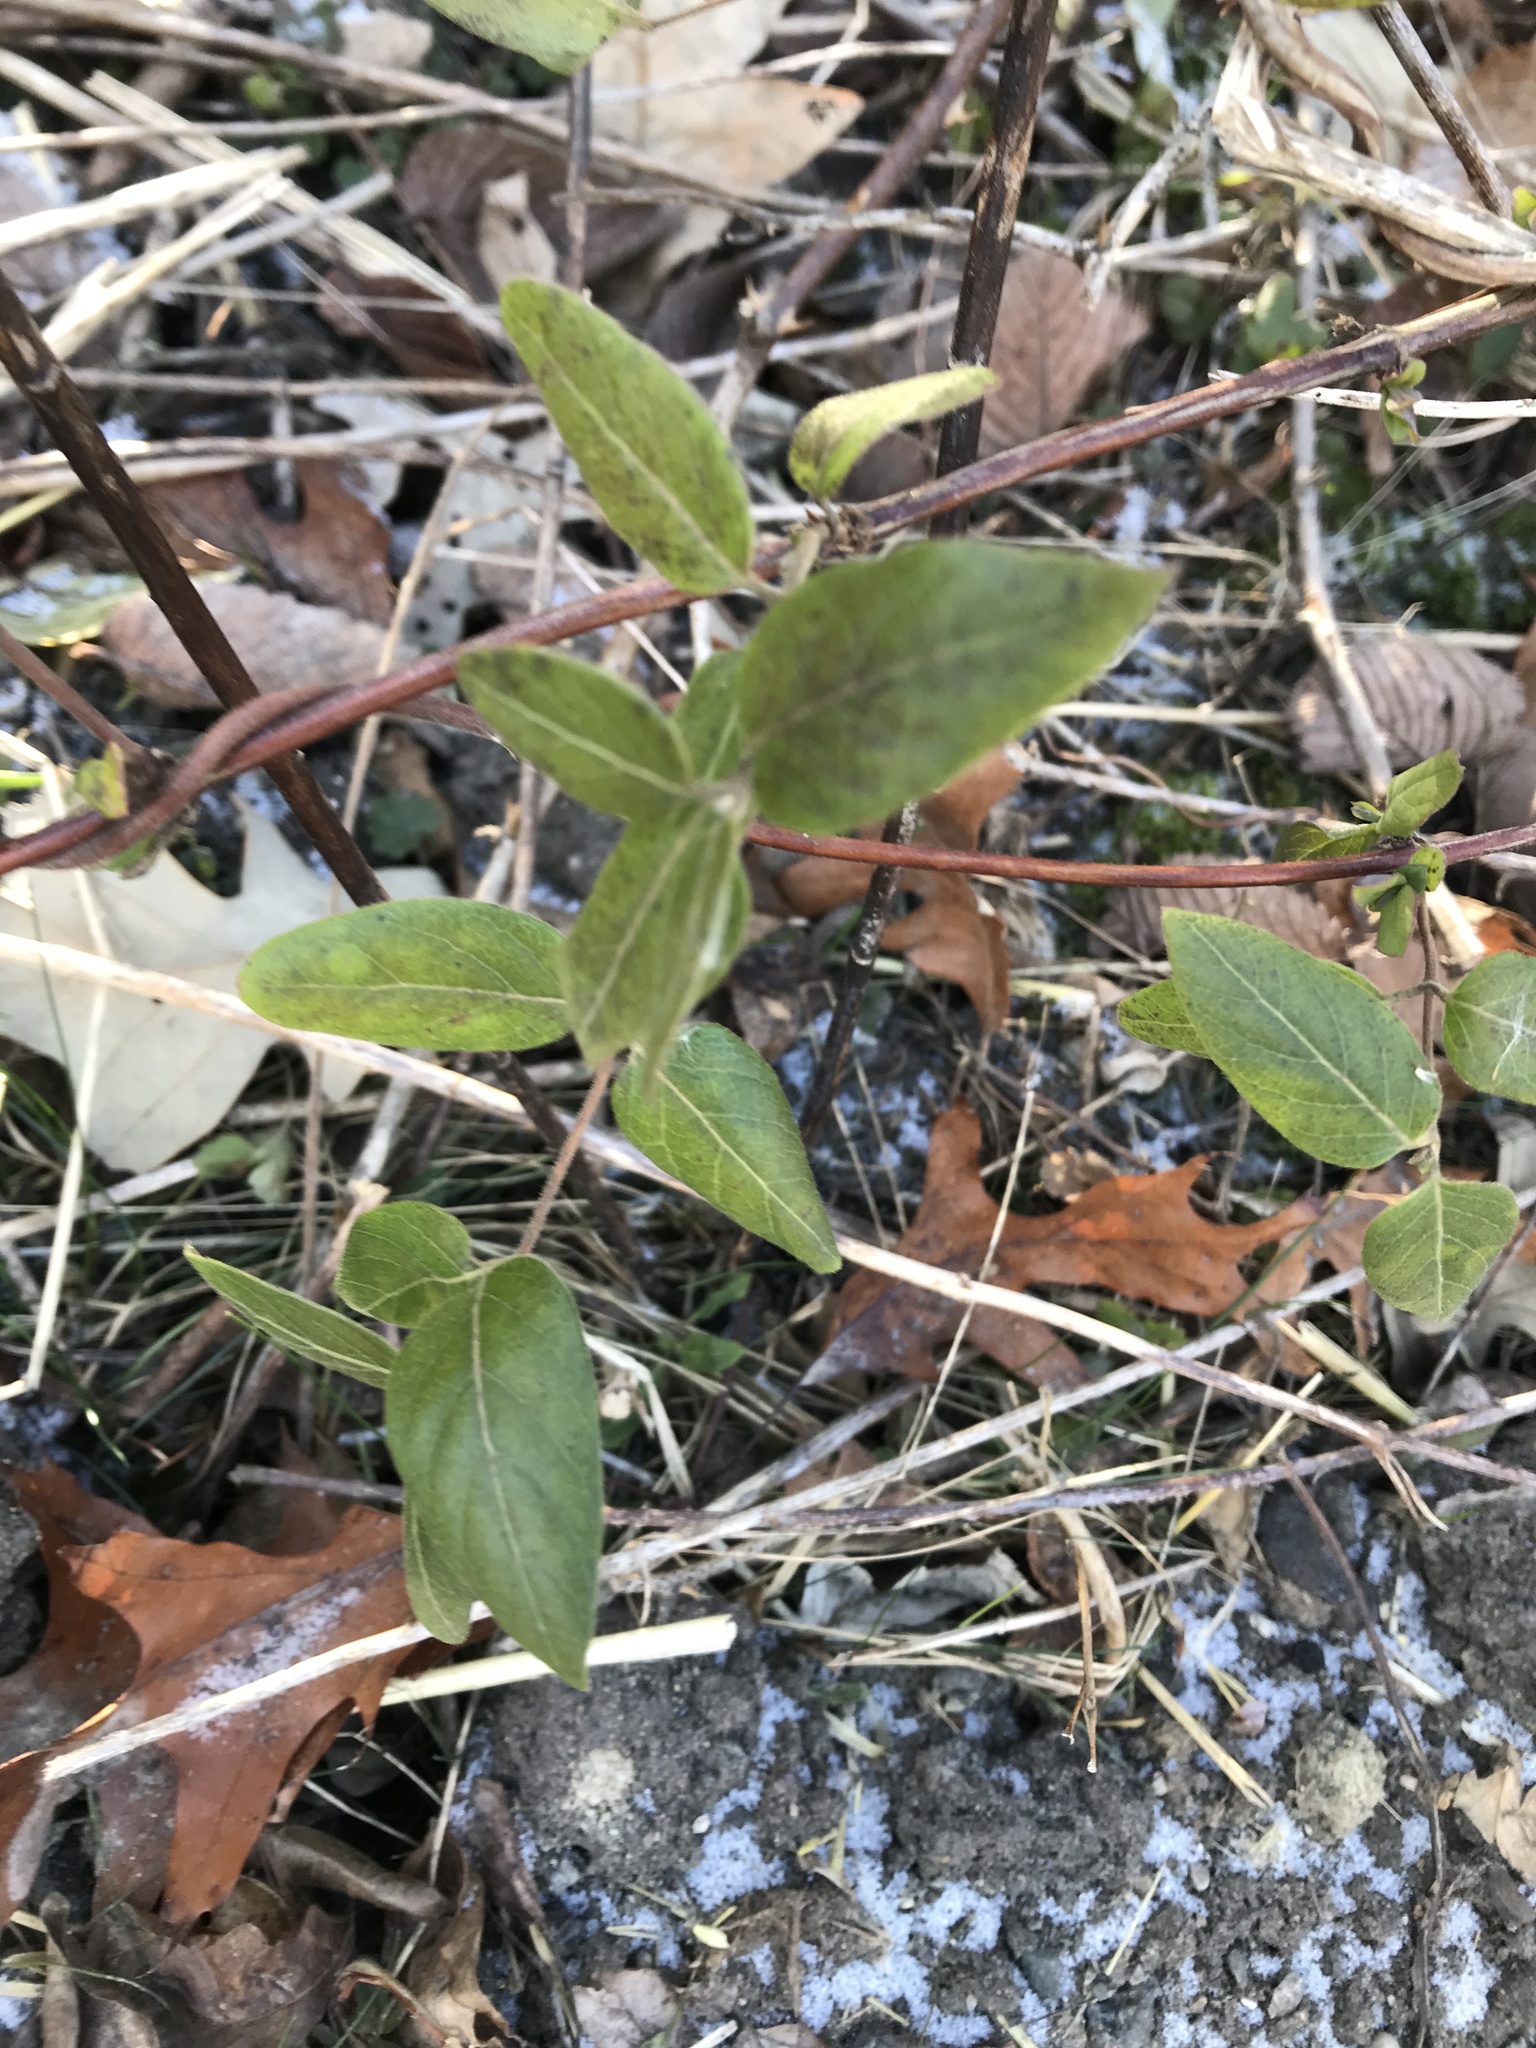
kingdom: Plantae
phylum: Tracheophyta
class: Magnoliopsida
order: Dipsacales
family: Caprifoliaceae
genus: Lonicera
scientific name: Lonicera japonica
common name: Japanese honeysuckle
